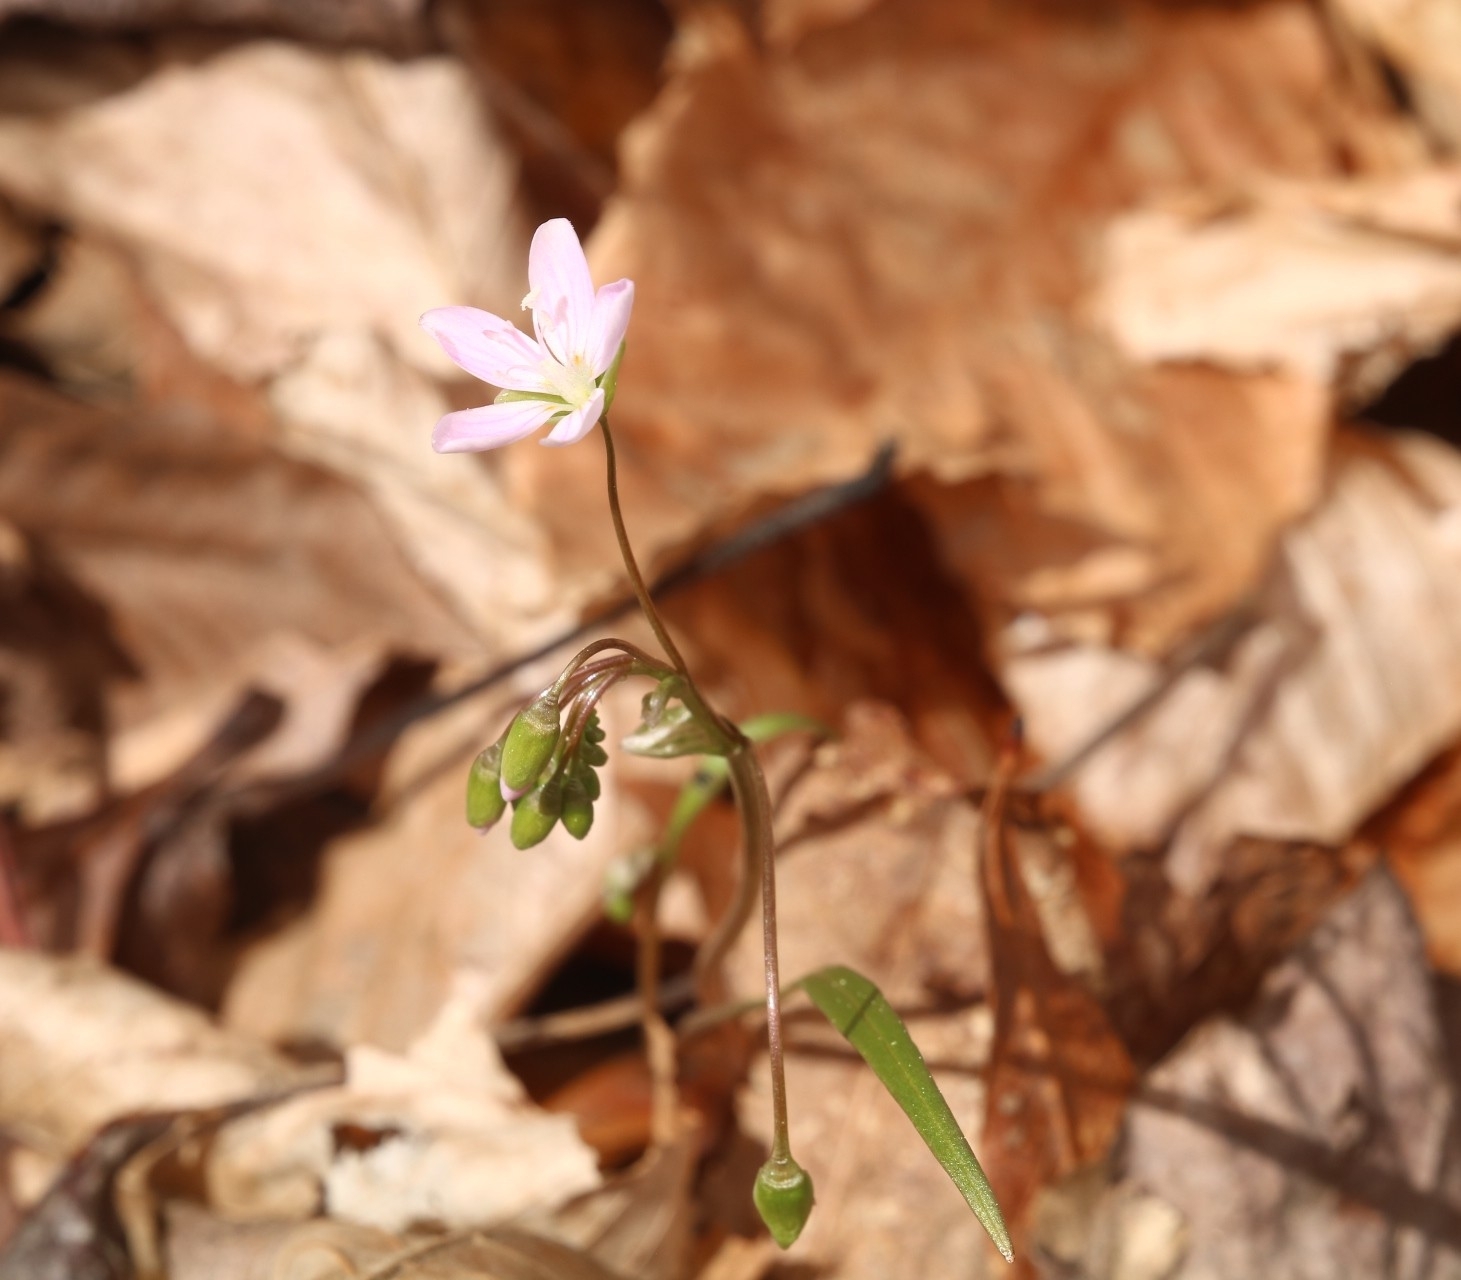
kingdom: Plantae
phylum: Tracheophyta
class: Magnoliopsida
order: Caryophyllales
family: Montiaceae
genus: Claytonia
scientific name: Claytonia virginica
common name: Virginia springbeauty
